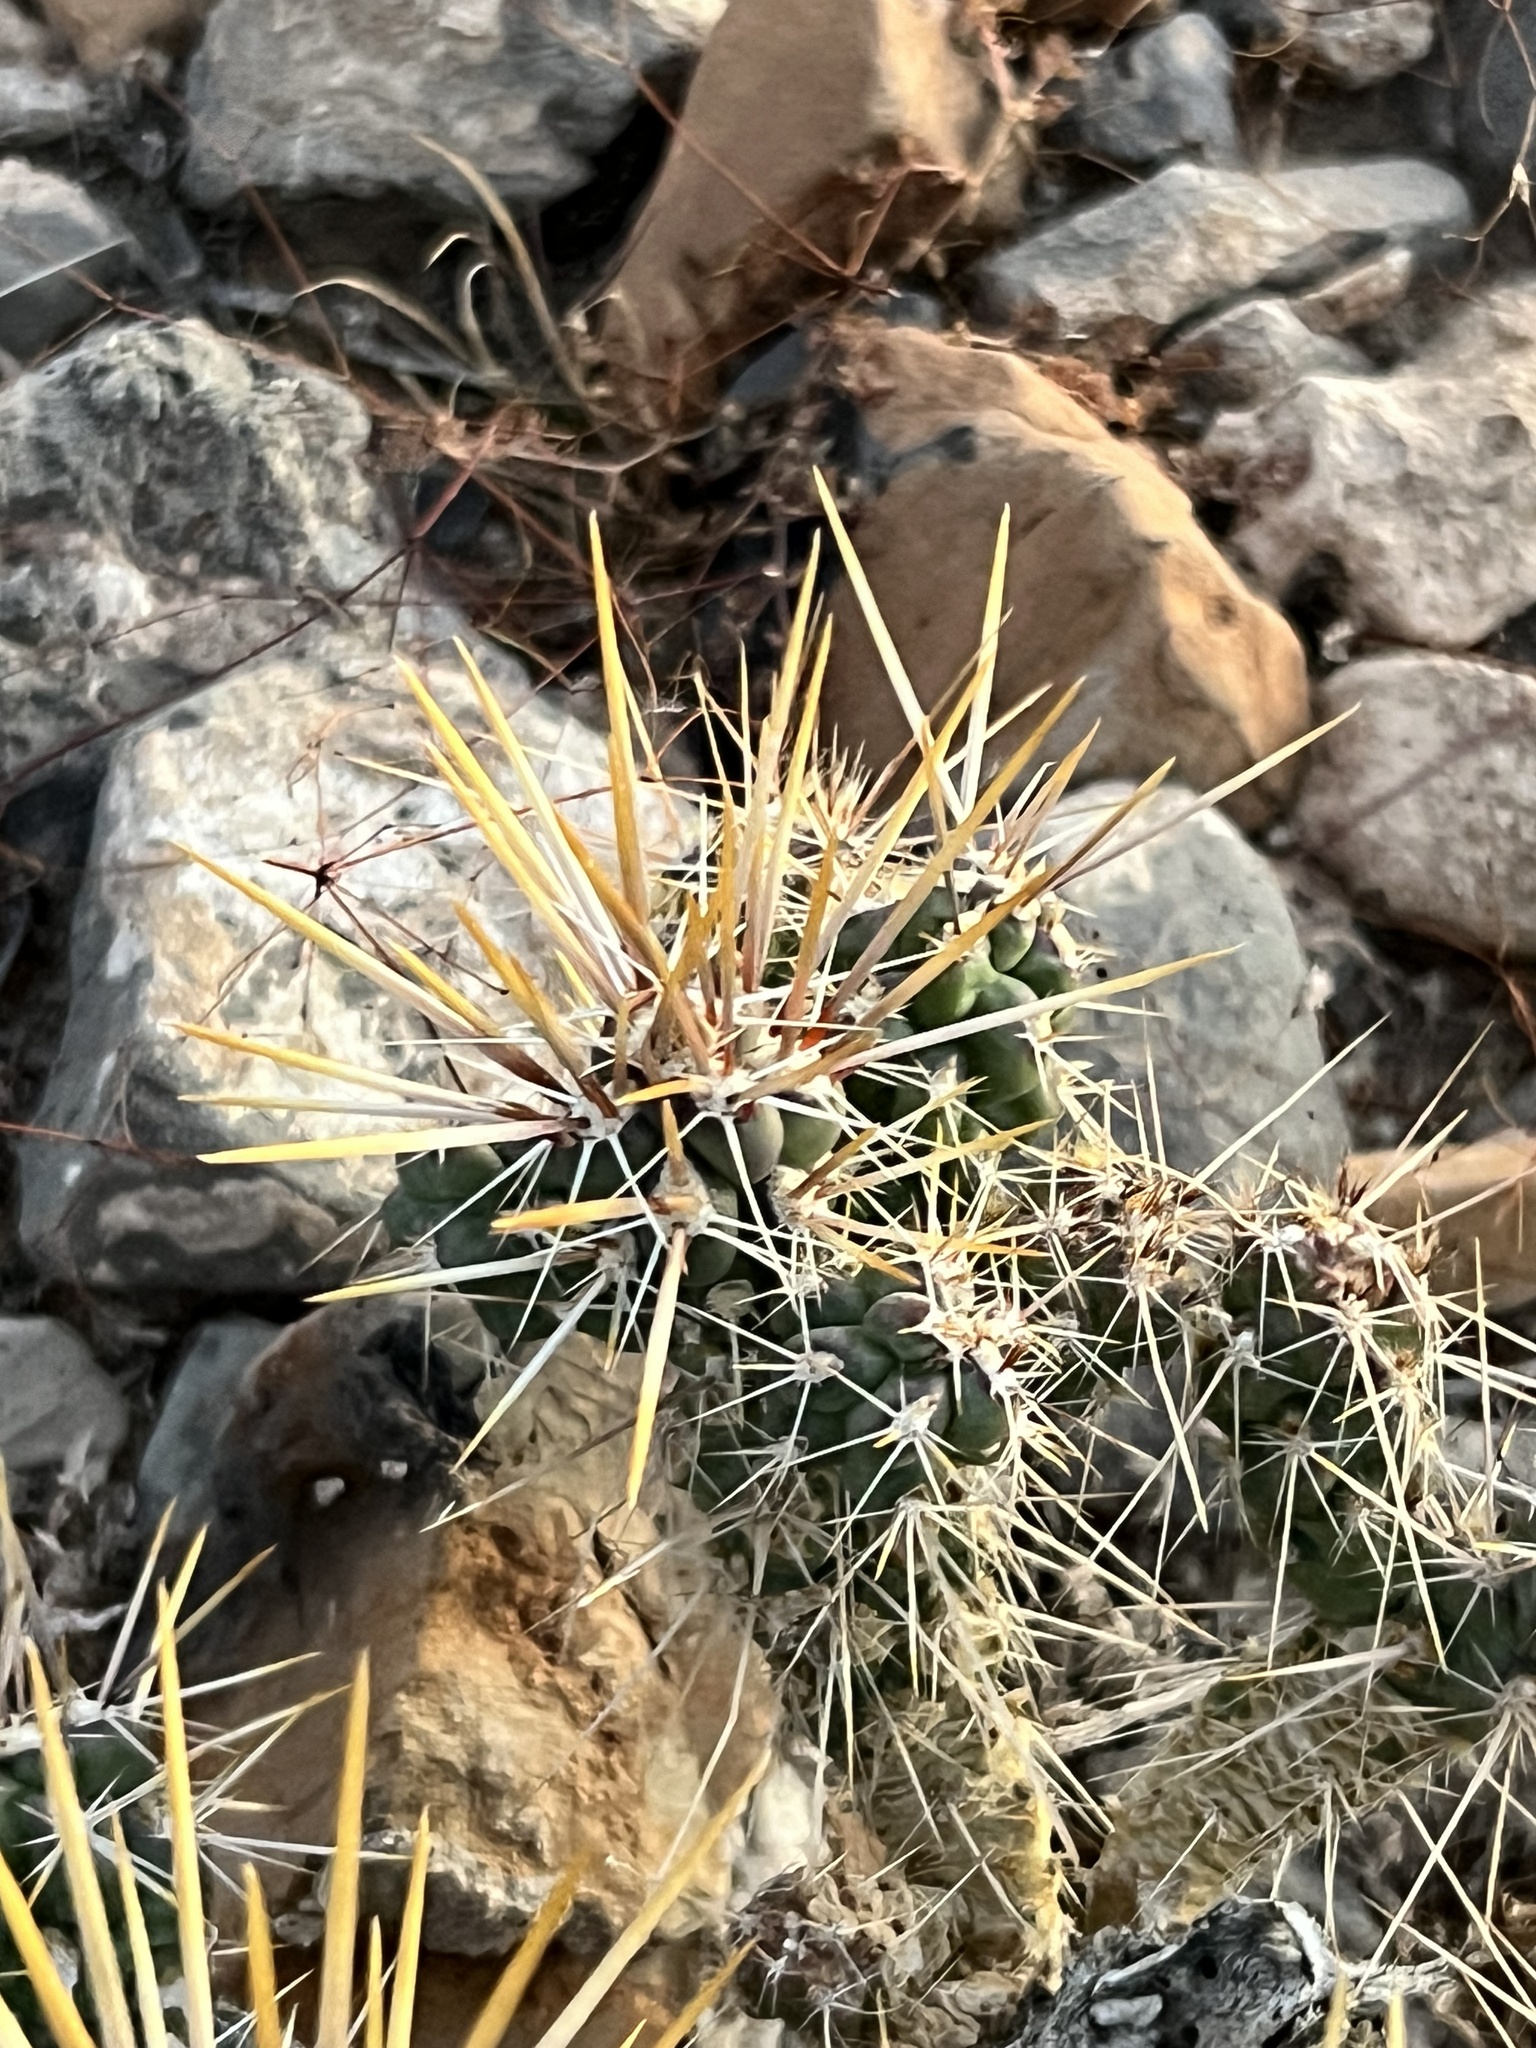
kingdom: Plantae
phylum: Tracheophyta
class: Magnoliopsida
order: Caryophyllales
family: Cactaceae
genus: Cylindropuntia
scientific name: Cylindropuntia echinocarpa
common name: Ground cholla
